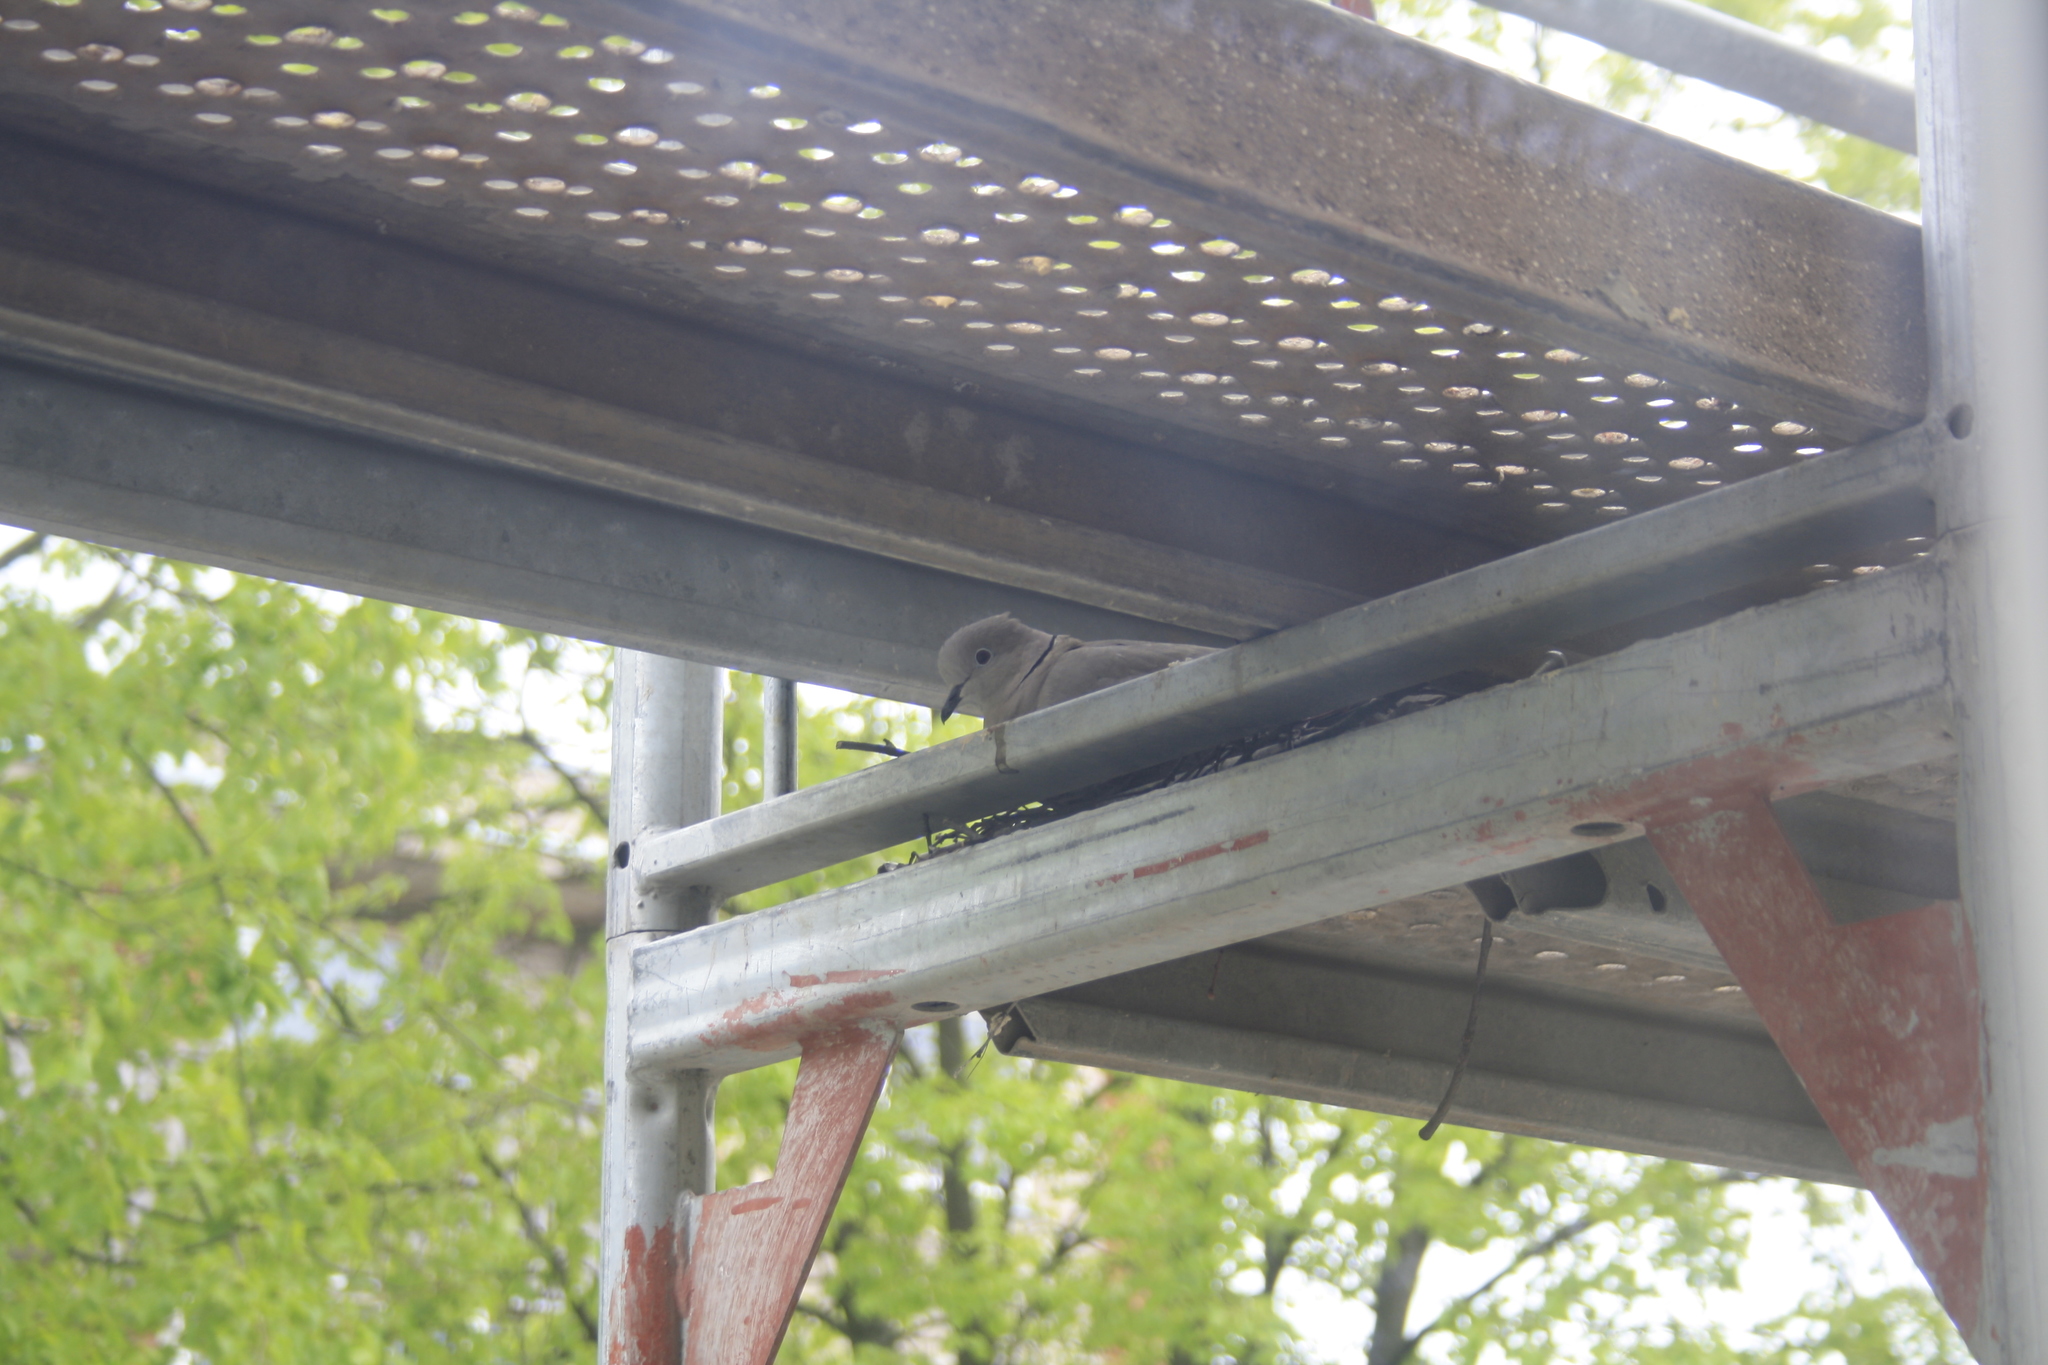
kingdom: Animalia
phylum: Chordata
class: Aves
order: Columbiformes
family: Columbidae
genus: Streptopelia
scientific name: Streptopelia decaocto
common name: Eurasian collared dove
